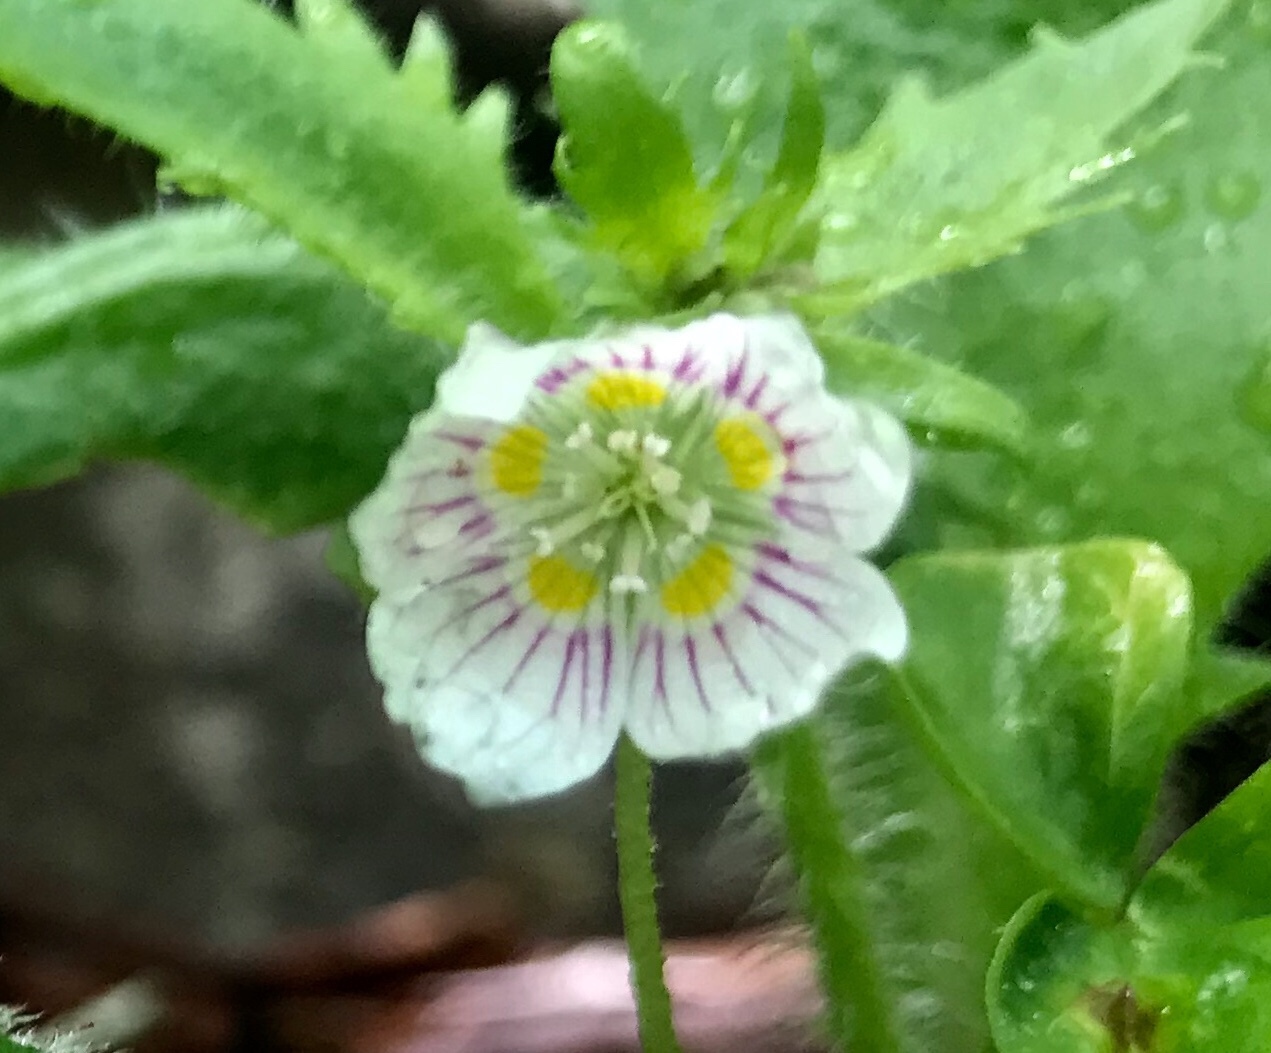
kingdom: Plantae
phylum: Tracheophyta
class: Magnoliopsida
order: Oxalidales
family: Oxalidaceae
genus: Oxalis
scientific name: Oxalis montana
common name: American wood-sorrel
